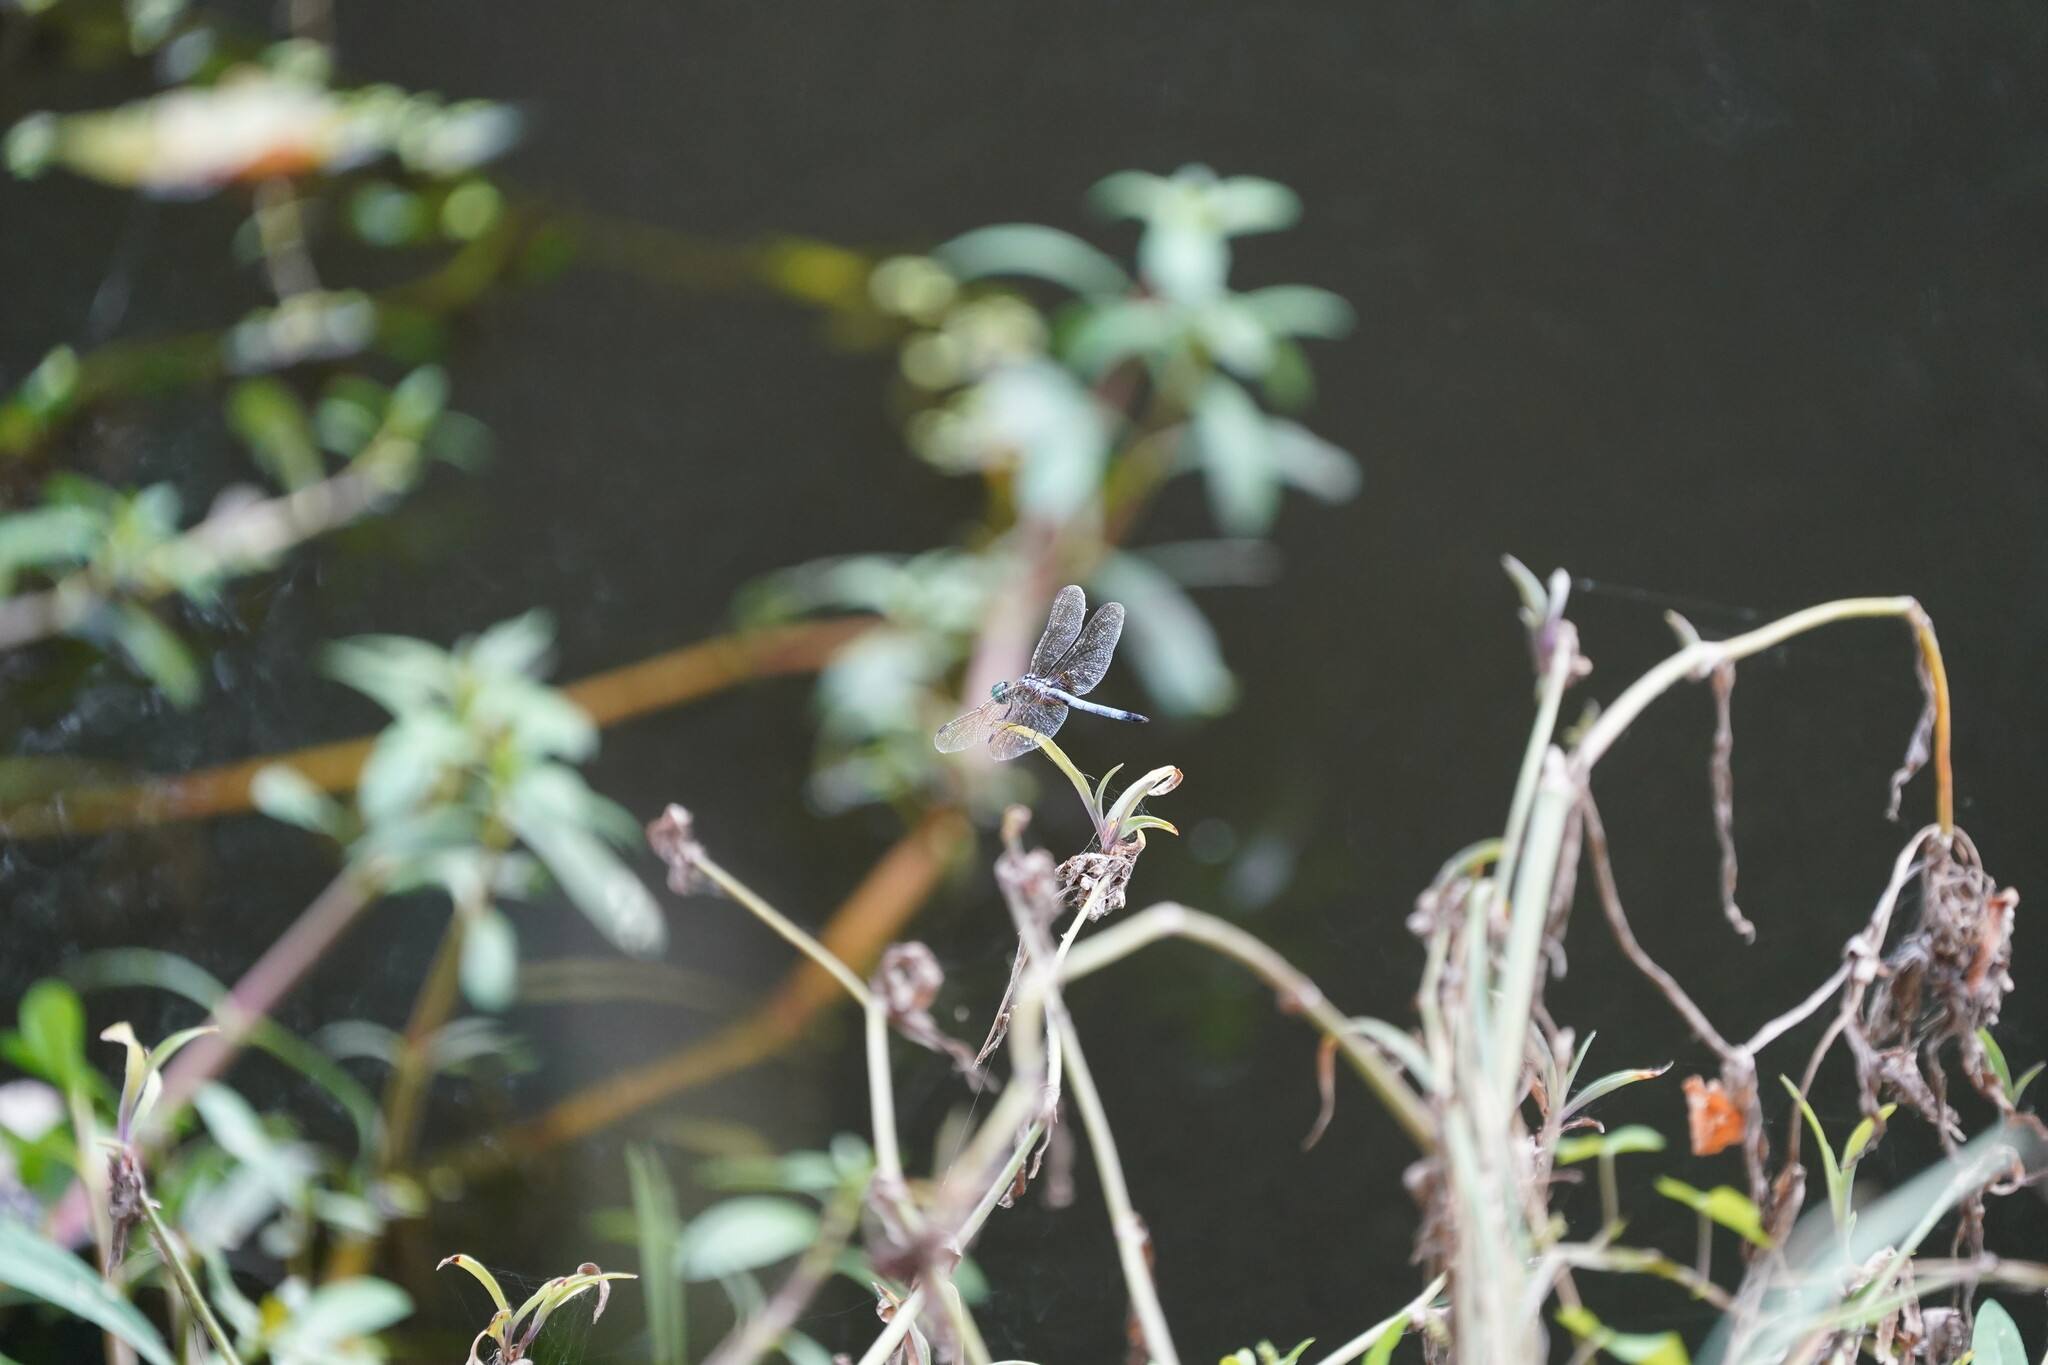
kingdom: Animalia
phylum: Arthropoda
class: Insecta
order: Odonata
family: Libellulidae
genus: Pachydiplax
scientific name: Pachydiplax longipennis
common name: Blue dasher
